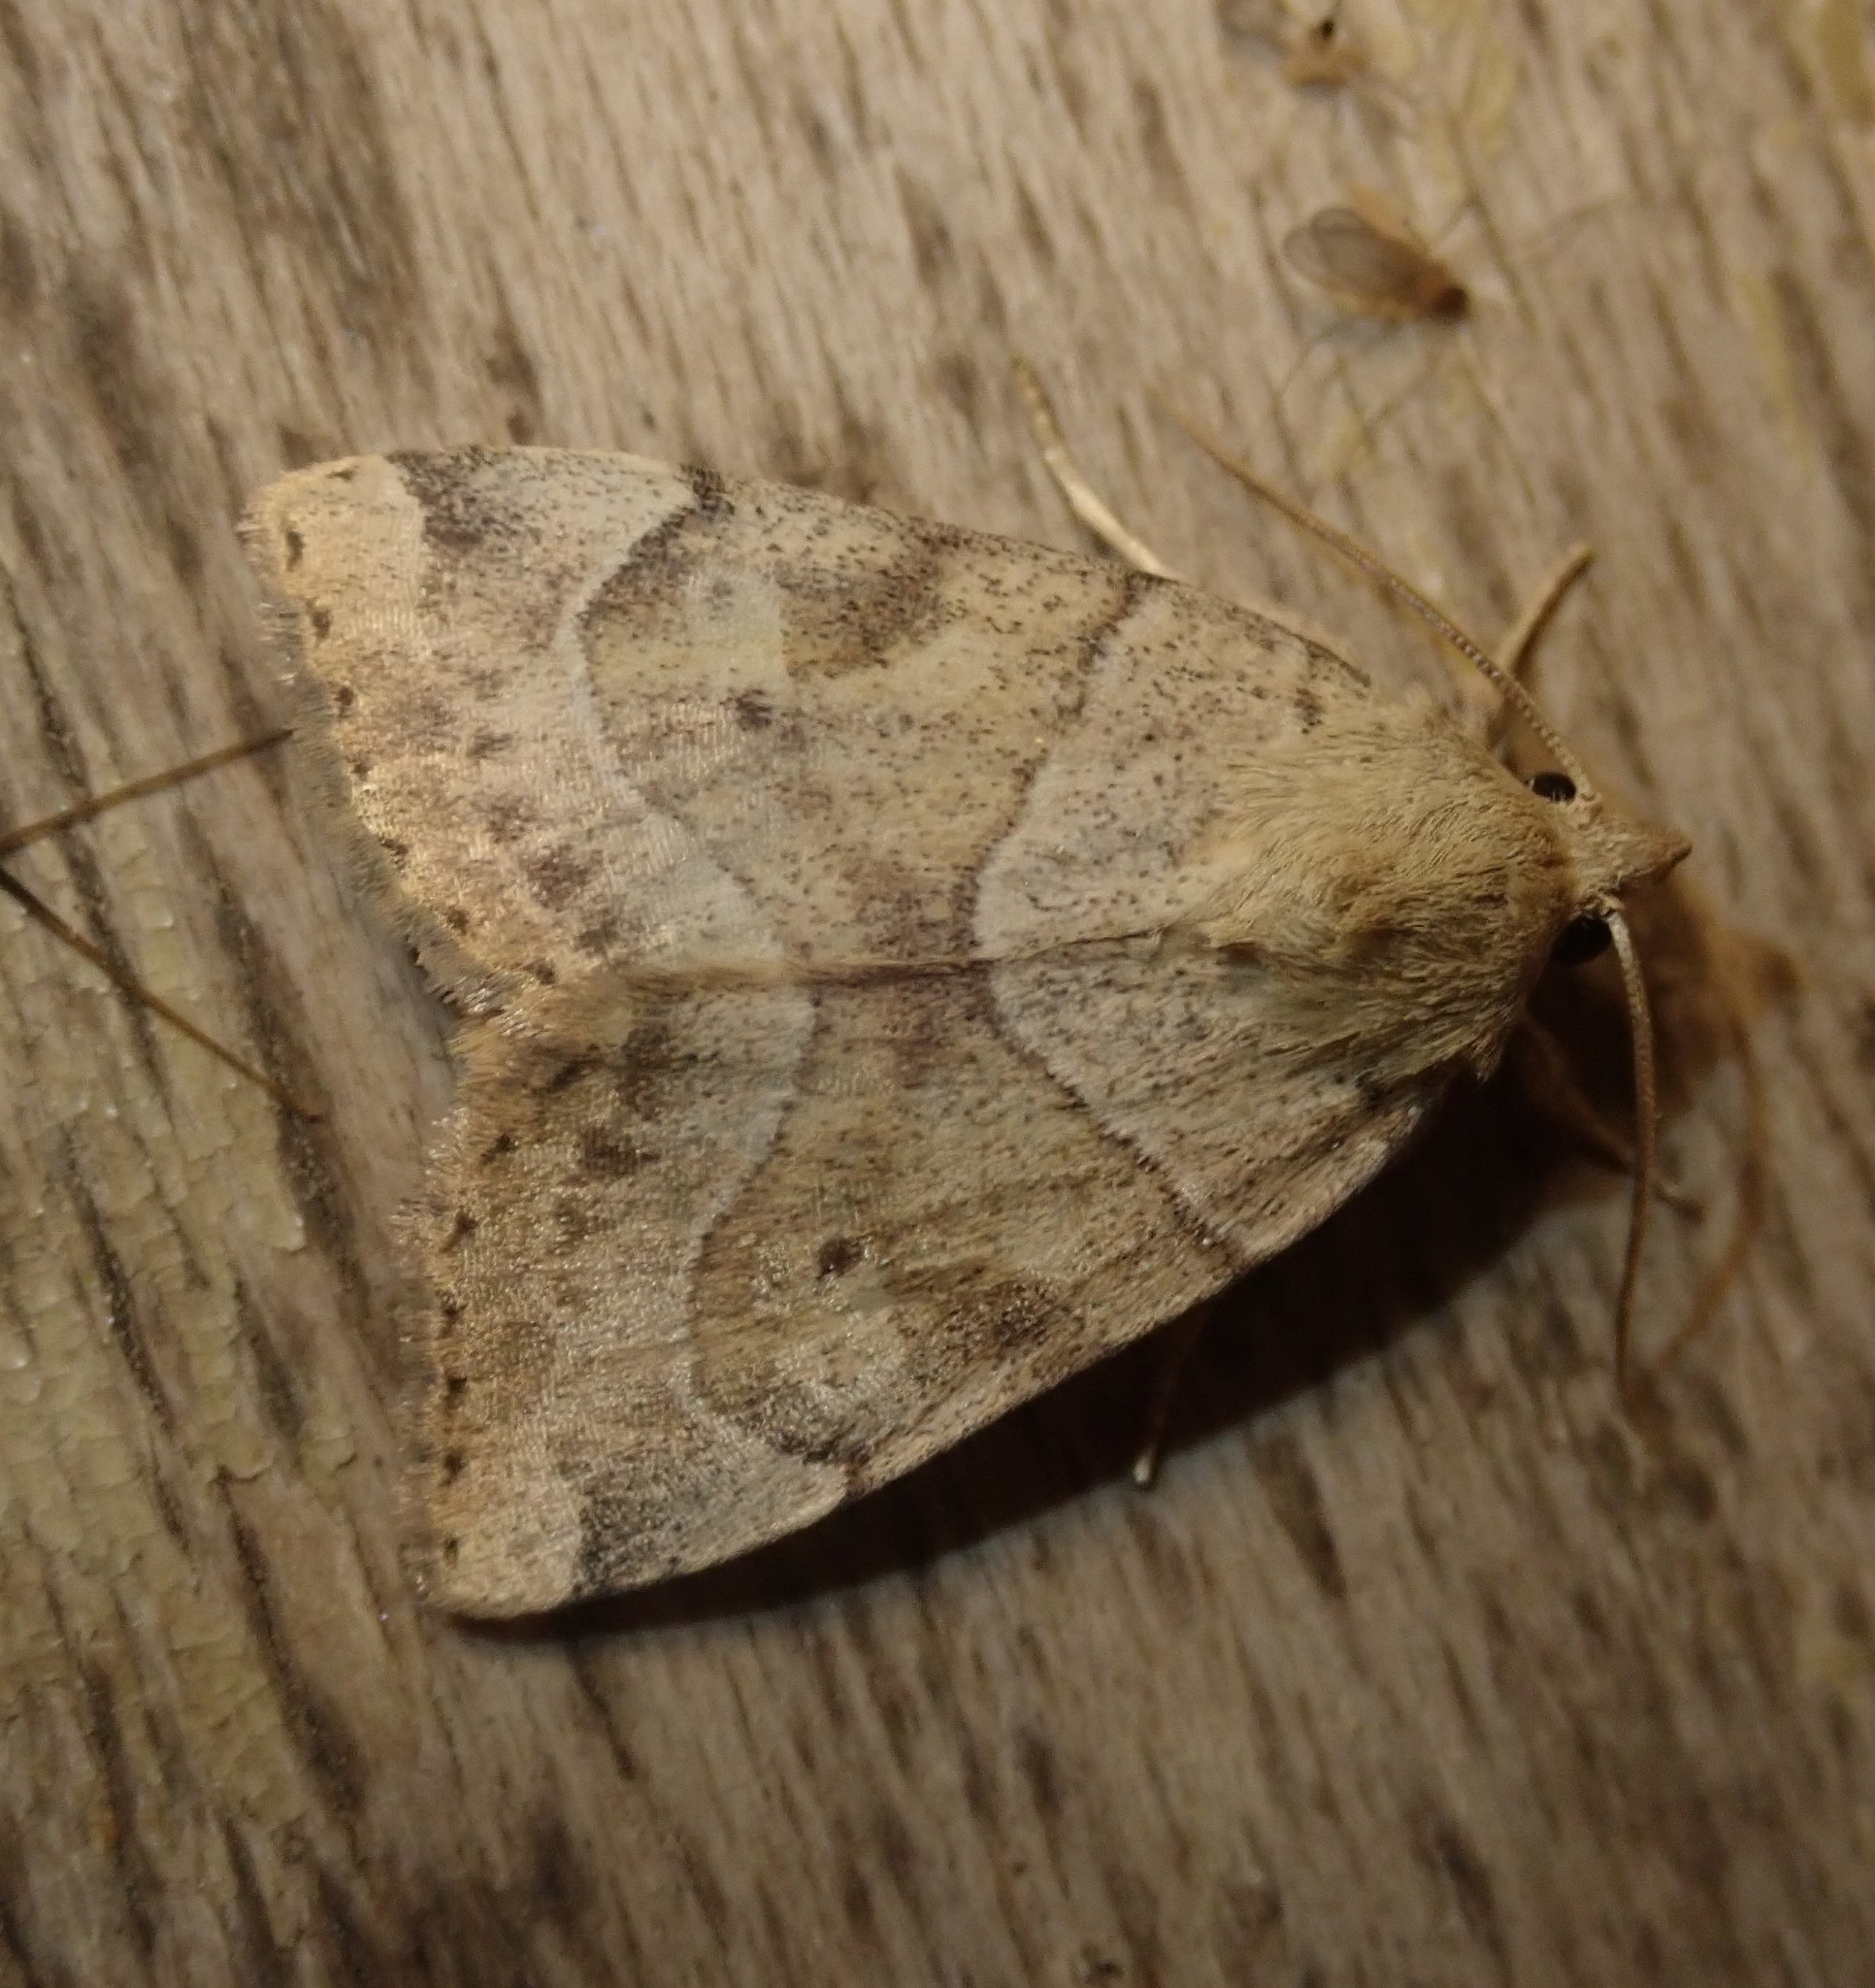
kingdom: Animalia
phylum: Arthropoda
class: Insecta
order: Lepidoptera
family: Noctuidae
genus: Cosmia
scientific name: Cosmia trapezina
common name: Dun-bar
